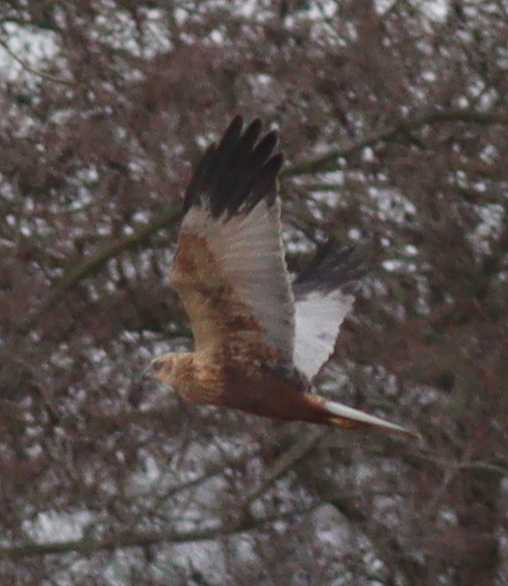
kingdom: Animalia
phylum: Chordata
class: Aves
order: Accipitriformes
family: Accipitridae
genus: Circus
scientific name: Circus aeruginosus
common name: Western marsh harrier
